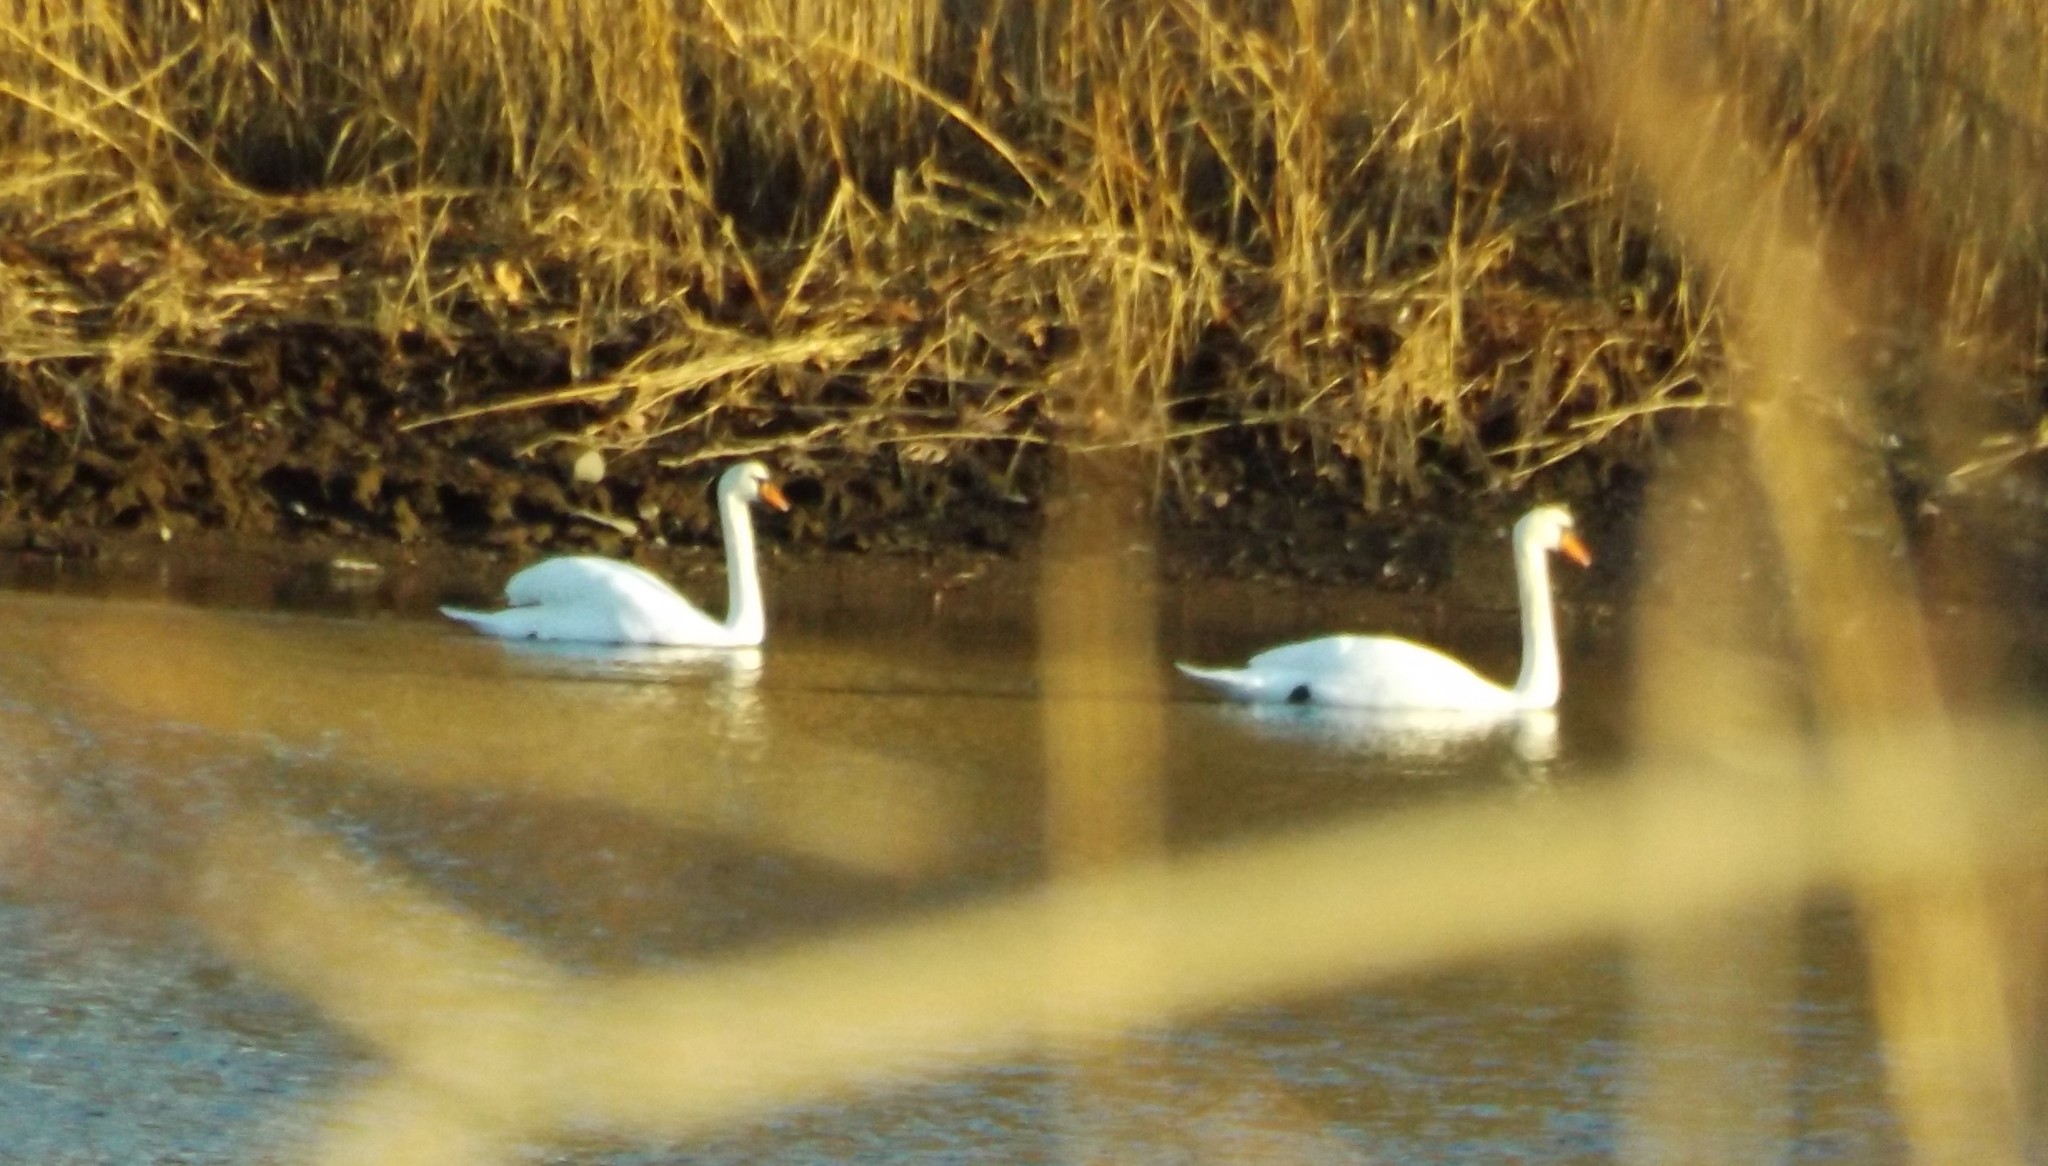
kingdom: Animalia
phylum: Chordata
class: Aves
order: Anseriformes
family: Anatidae
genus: Cygnus
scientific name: Cygnus olor
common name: Mute swan
